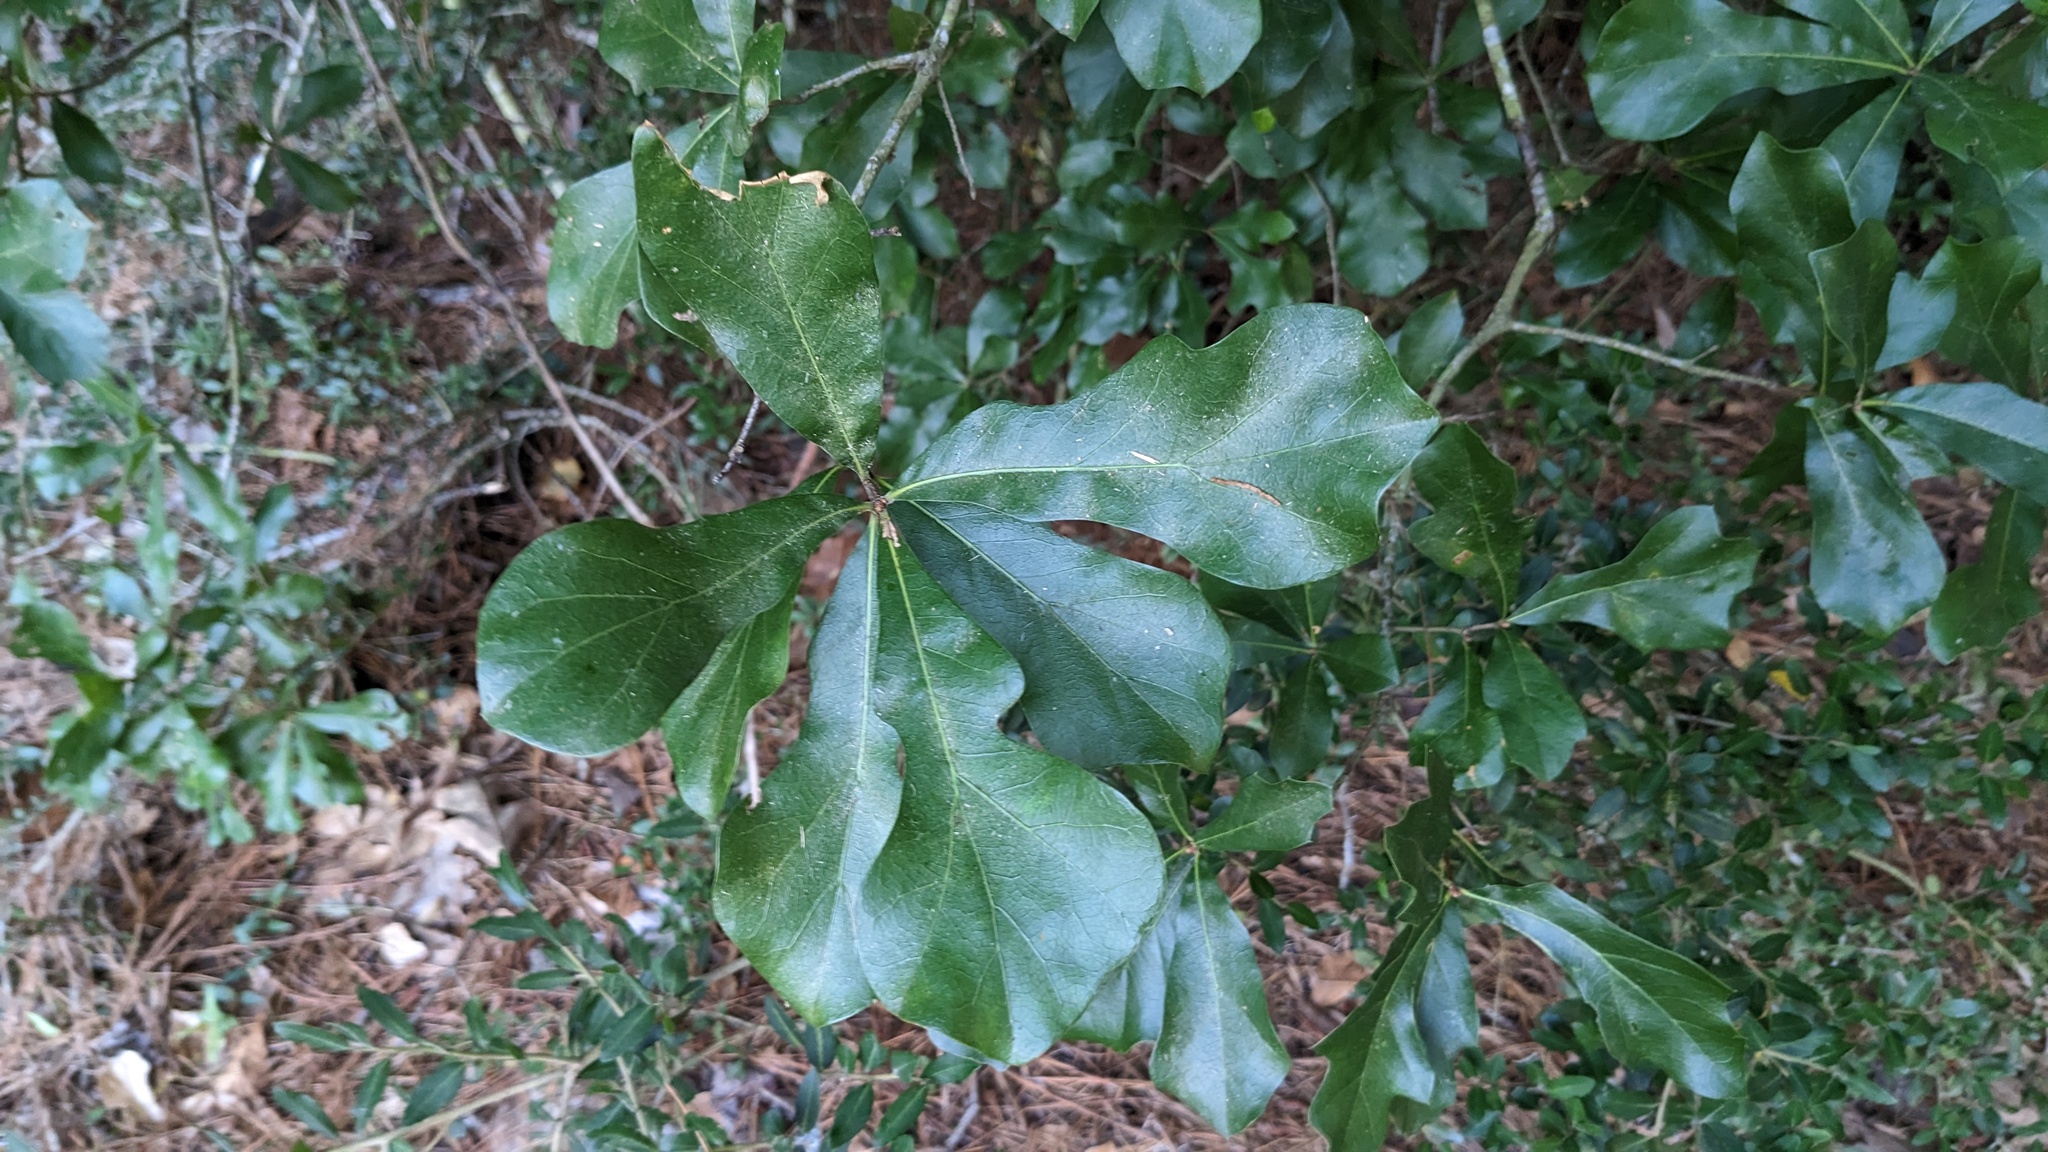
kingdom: Plantae
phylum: Tracheophyta
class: Magnoliopsida
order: Fagales
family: Fagaceae
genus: Quercus
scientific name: Quercus nigra
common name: Water oak
